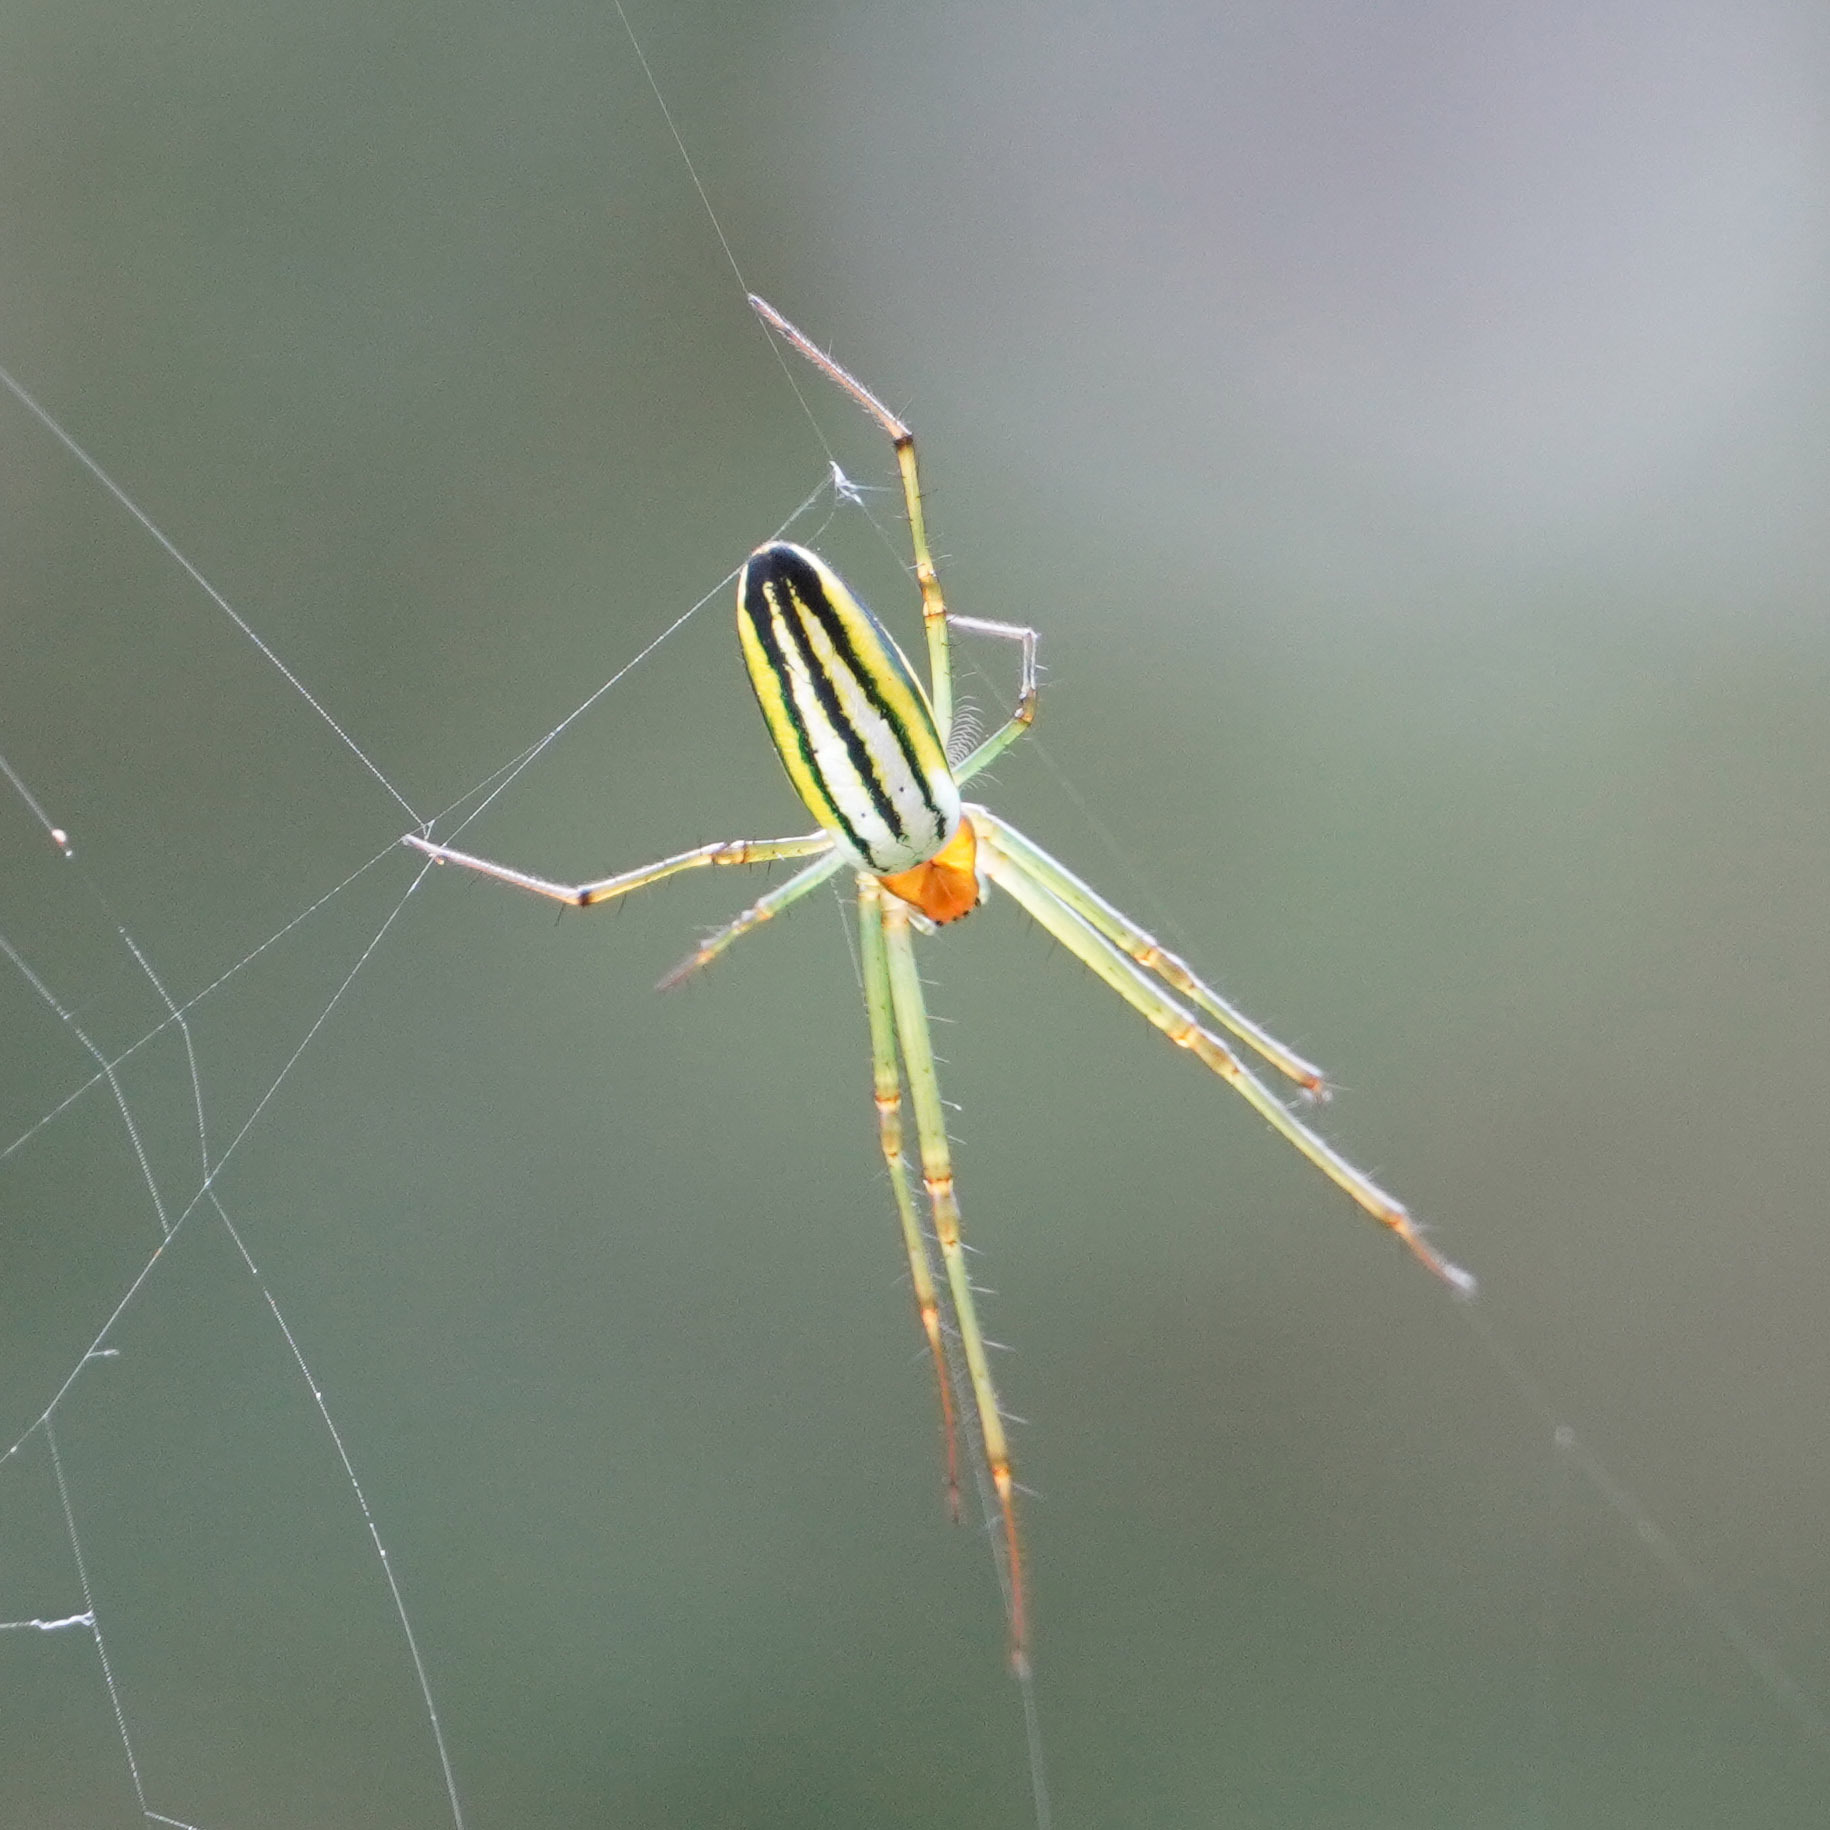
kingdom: Animalia
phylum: Arthropoda
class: Arachnida
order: Araneae
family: Tetragnathidae
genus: Leucauge
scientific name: Leucauge celebesiana
